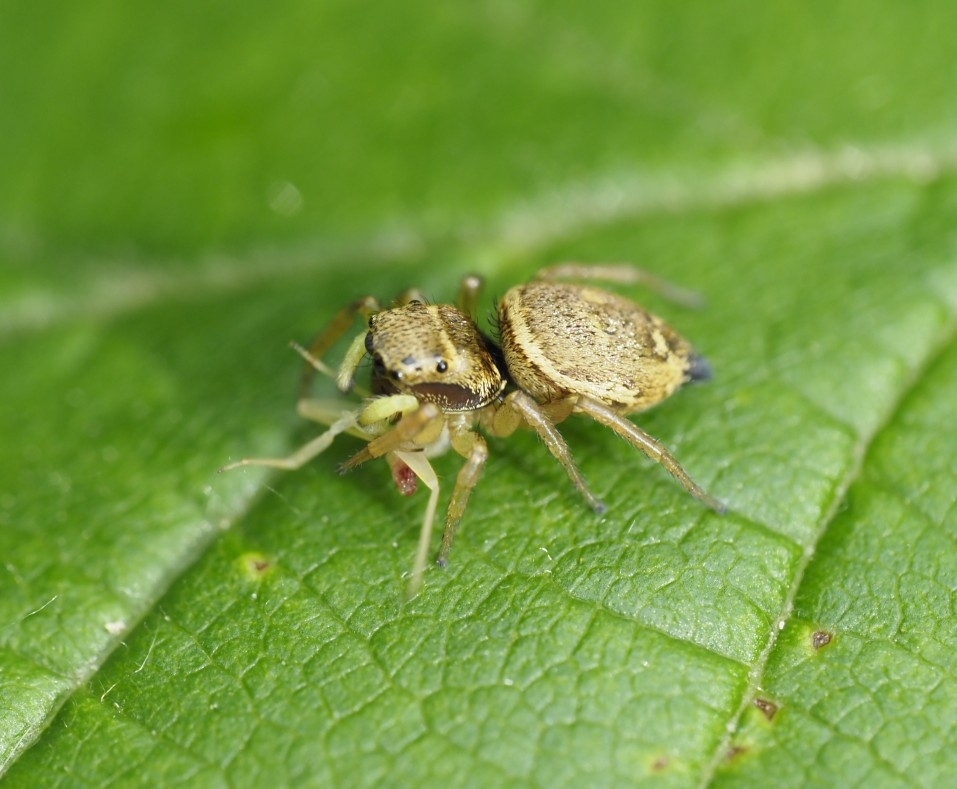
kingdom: Animalia
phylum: Arthropoda
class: Arachnida
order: Araneae
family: Salticidae
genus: Heliophanus
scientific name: Heliophanus tribulosus
